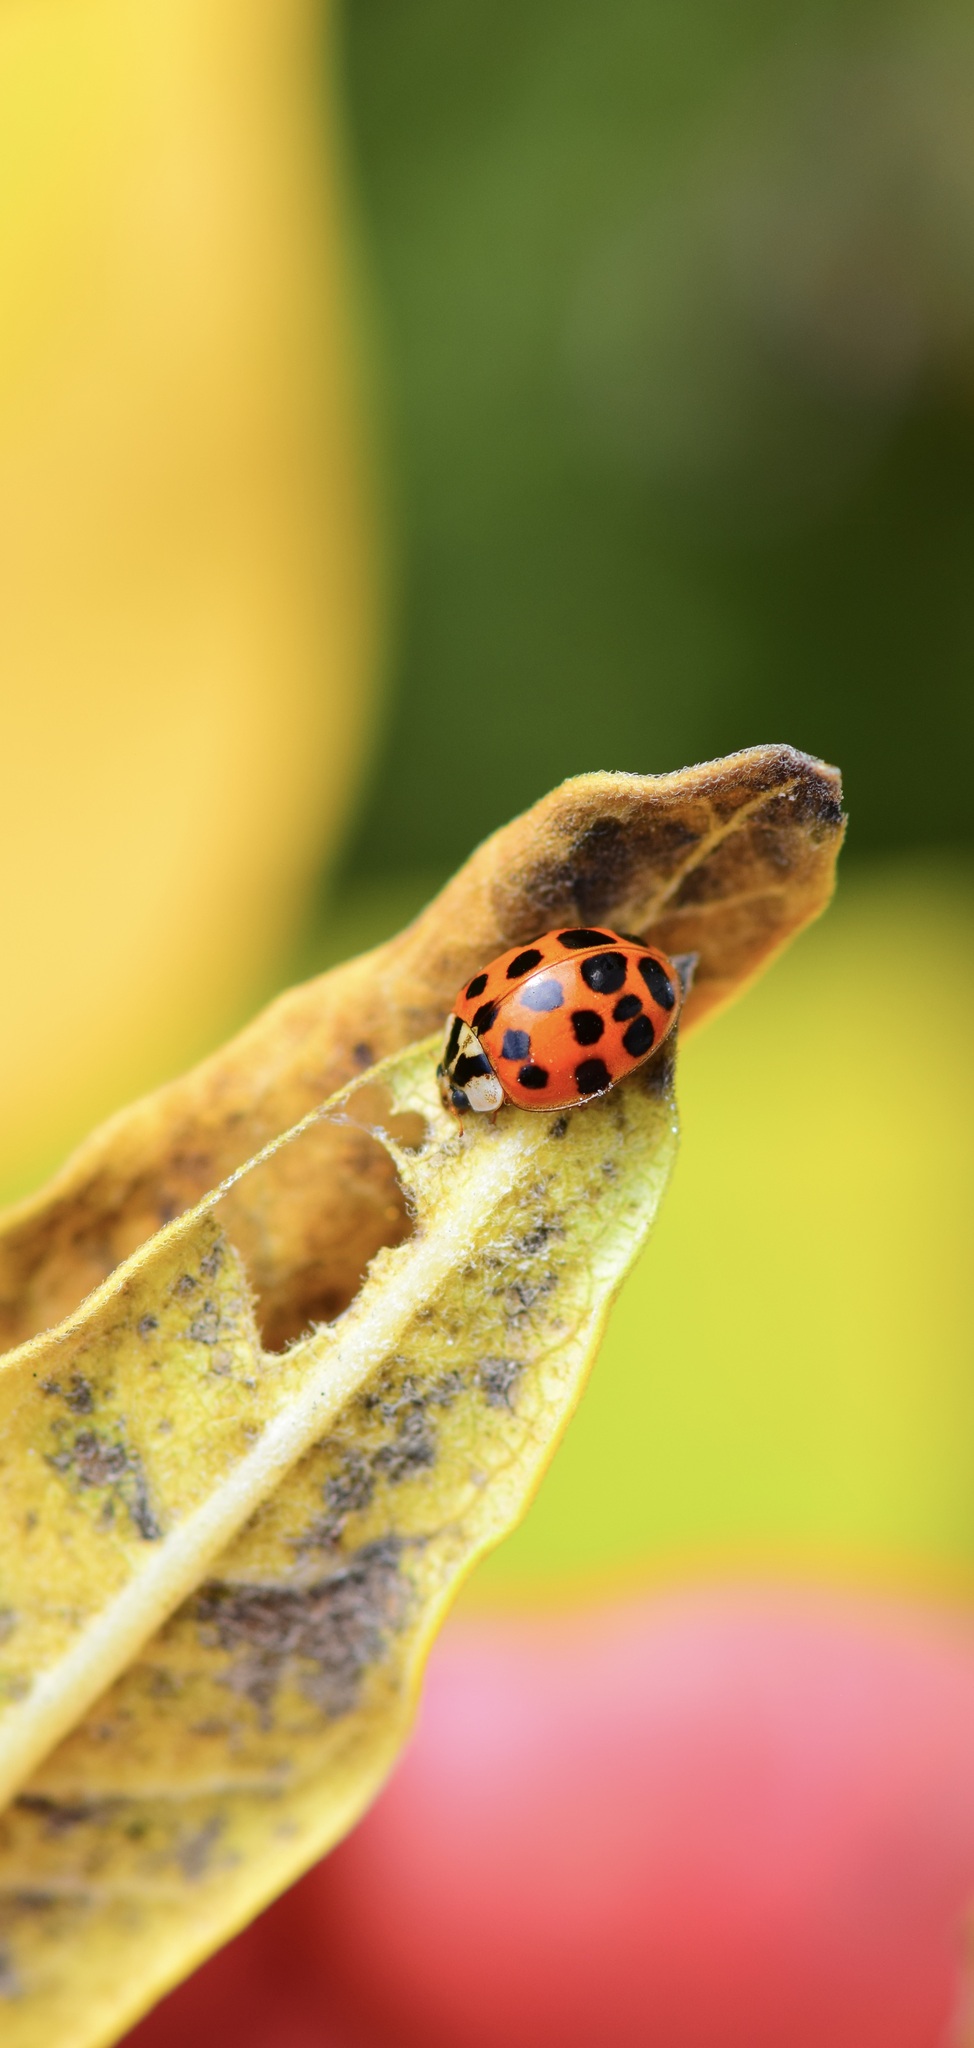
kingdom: Animalia
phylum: Arthropoda
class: Insecta
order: Coleoptera
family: Coccinellidae
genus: Harmonia
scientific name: Harmonia axyridis
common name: Harlequin ladybird
